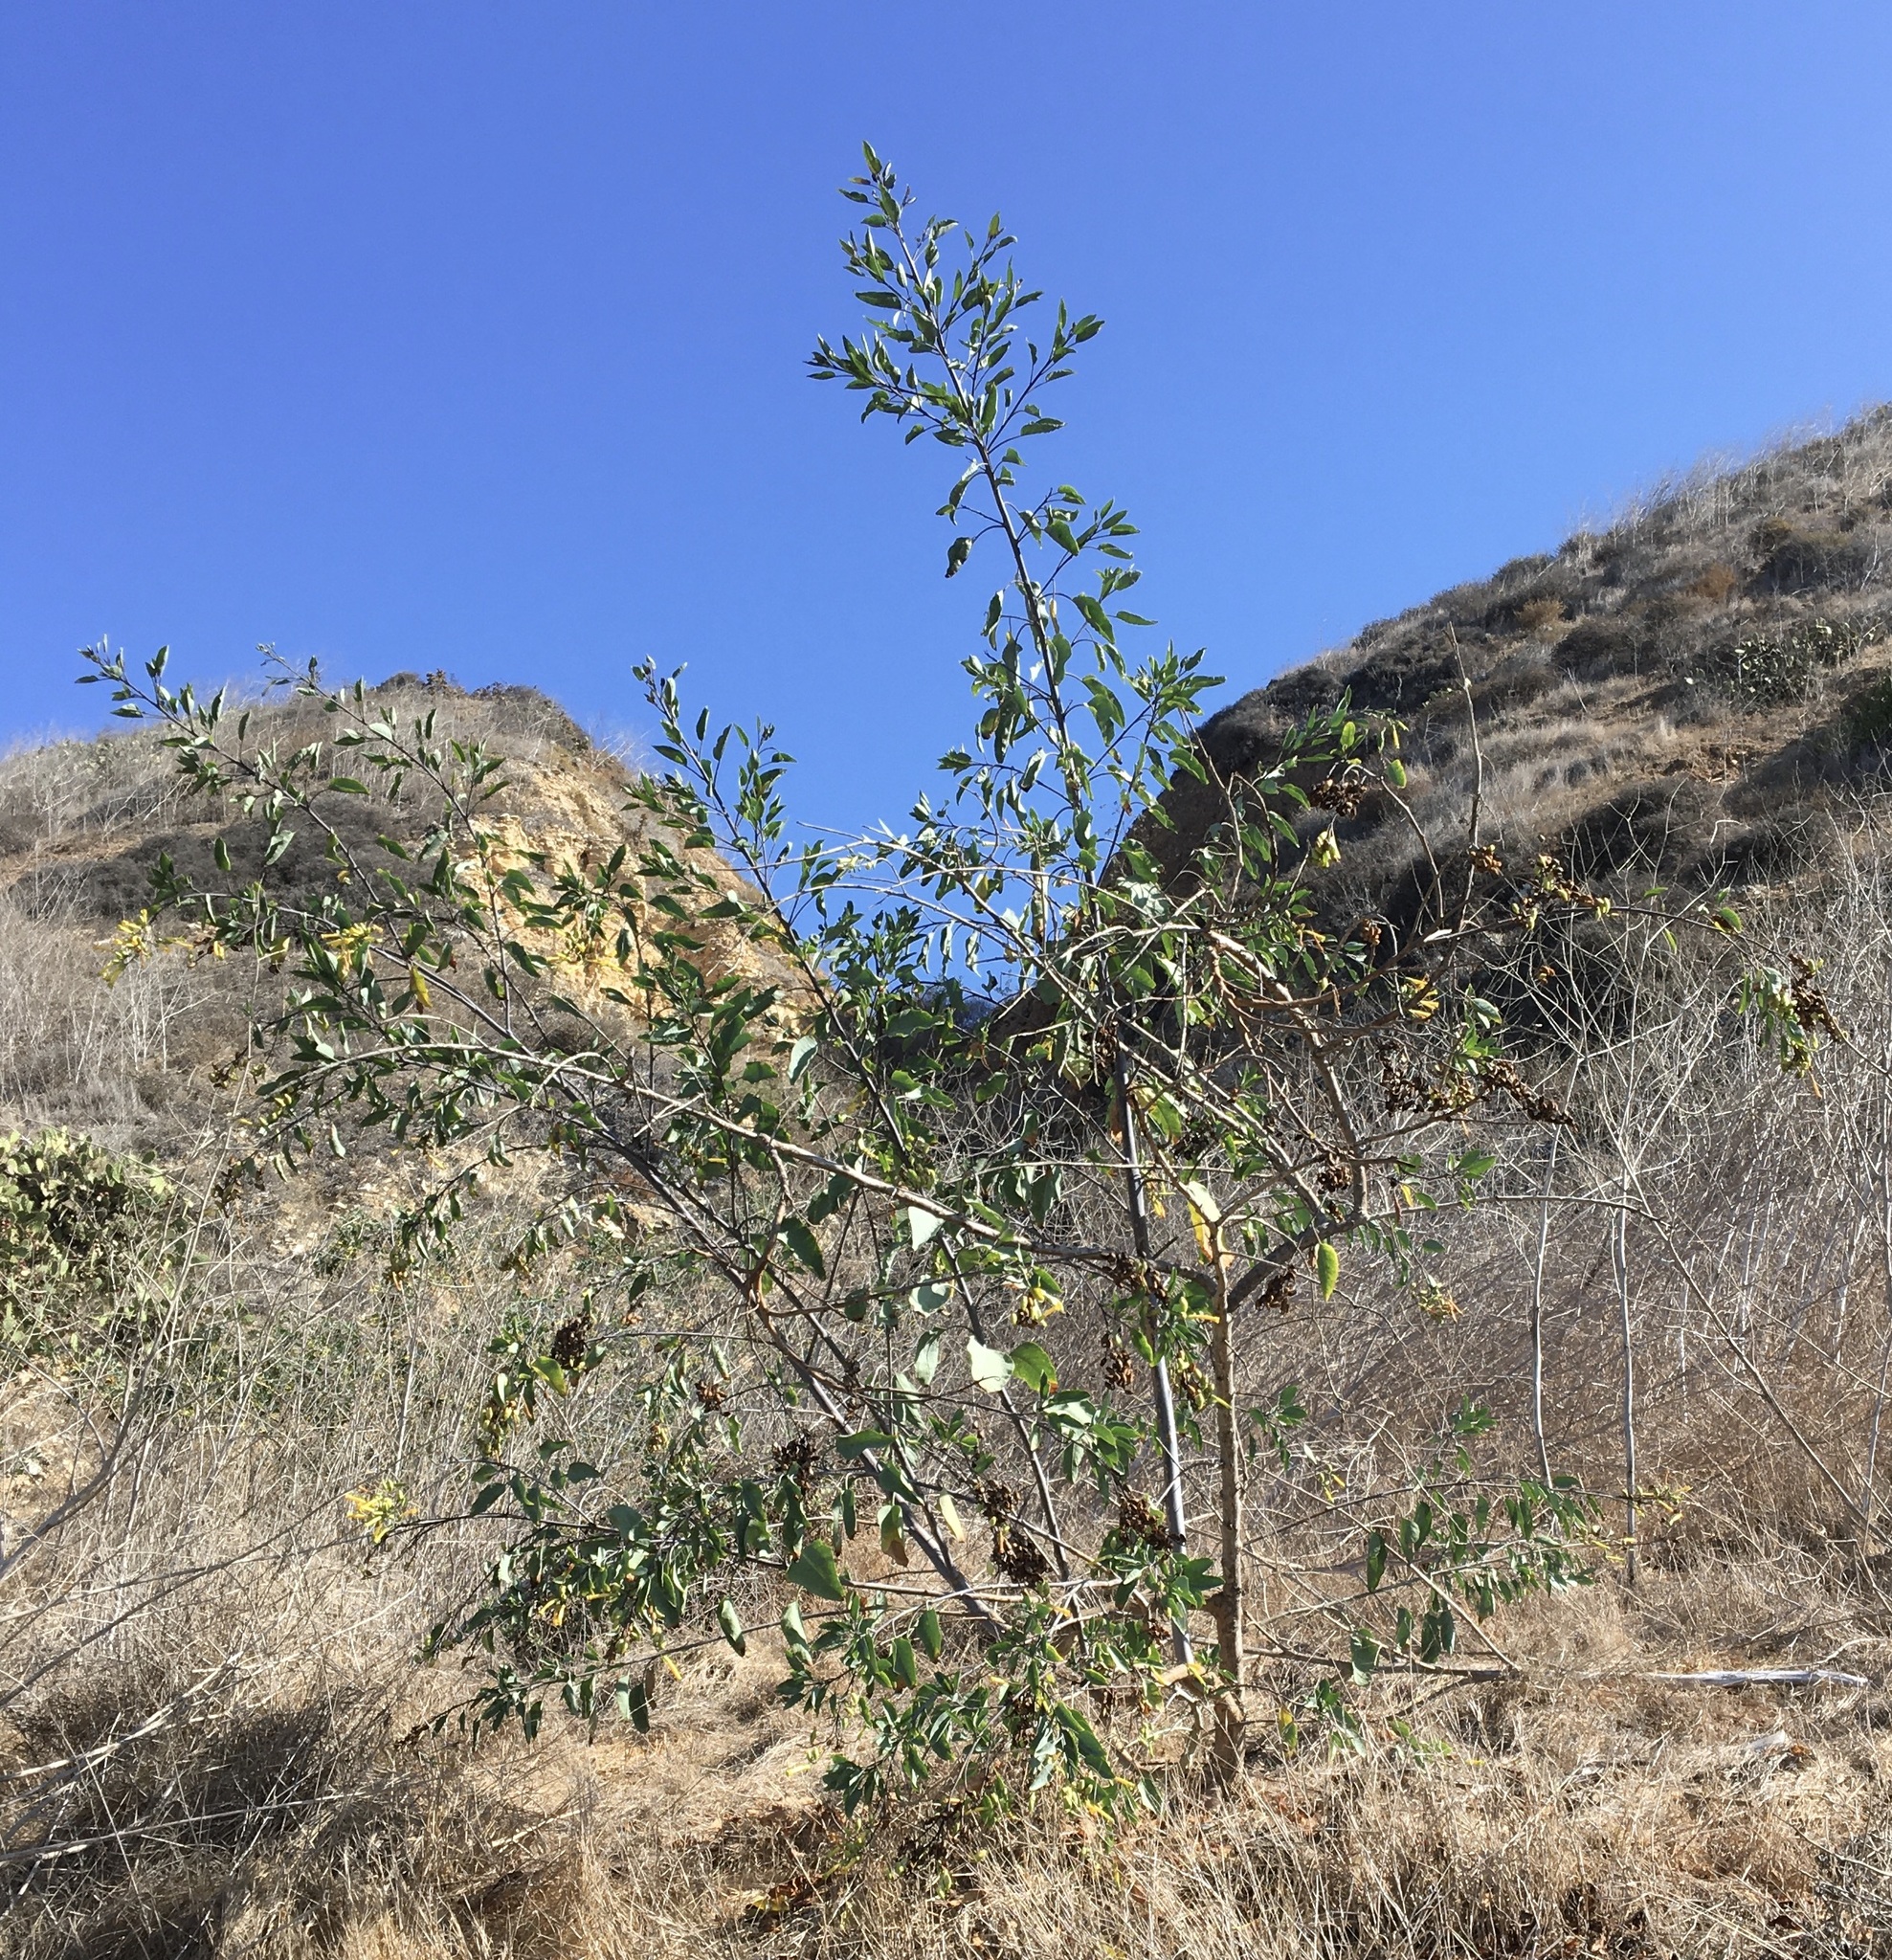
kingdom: Plantae
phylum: Tracheophyta
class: Magnoliopsida
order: Solanales
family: Solanaceae
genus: Nicotiana
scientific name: Nicotiana glauca
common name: Tree tobacco
